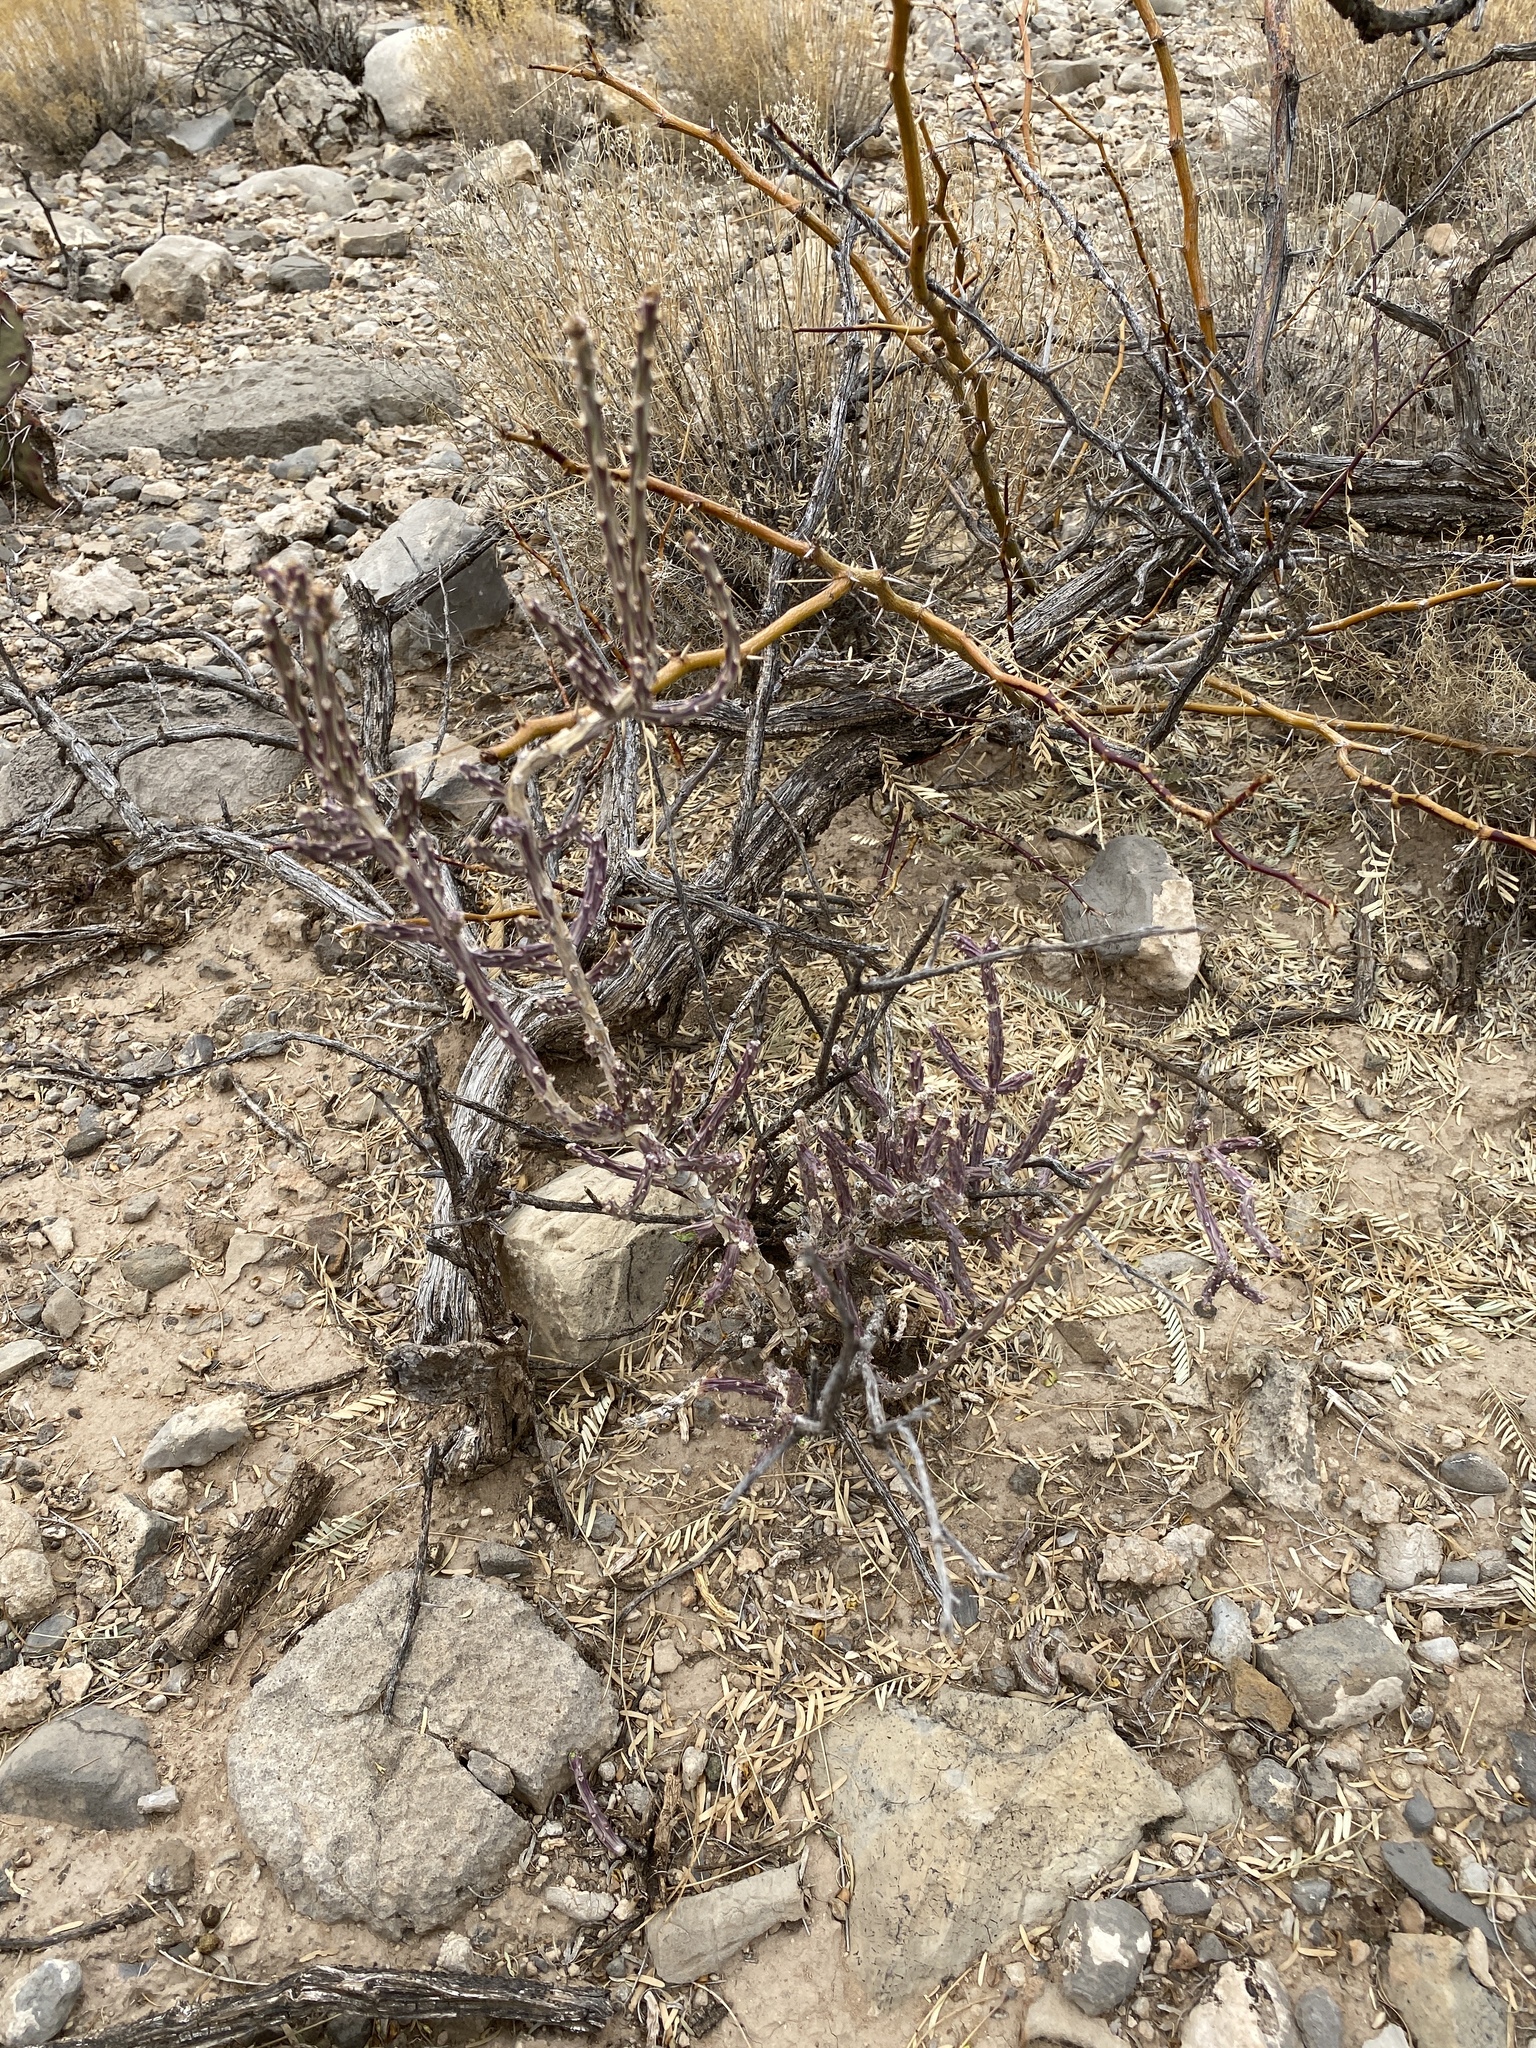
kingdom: Plantae
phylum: Tracheophyta
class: Magnoliopsida
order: Caryophyllales
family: Cactaceae
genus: Cylindropuntia
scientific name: Cylindropuntia leptocaulis
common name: Christmas cactus
